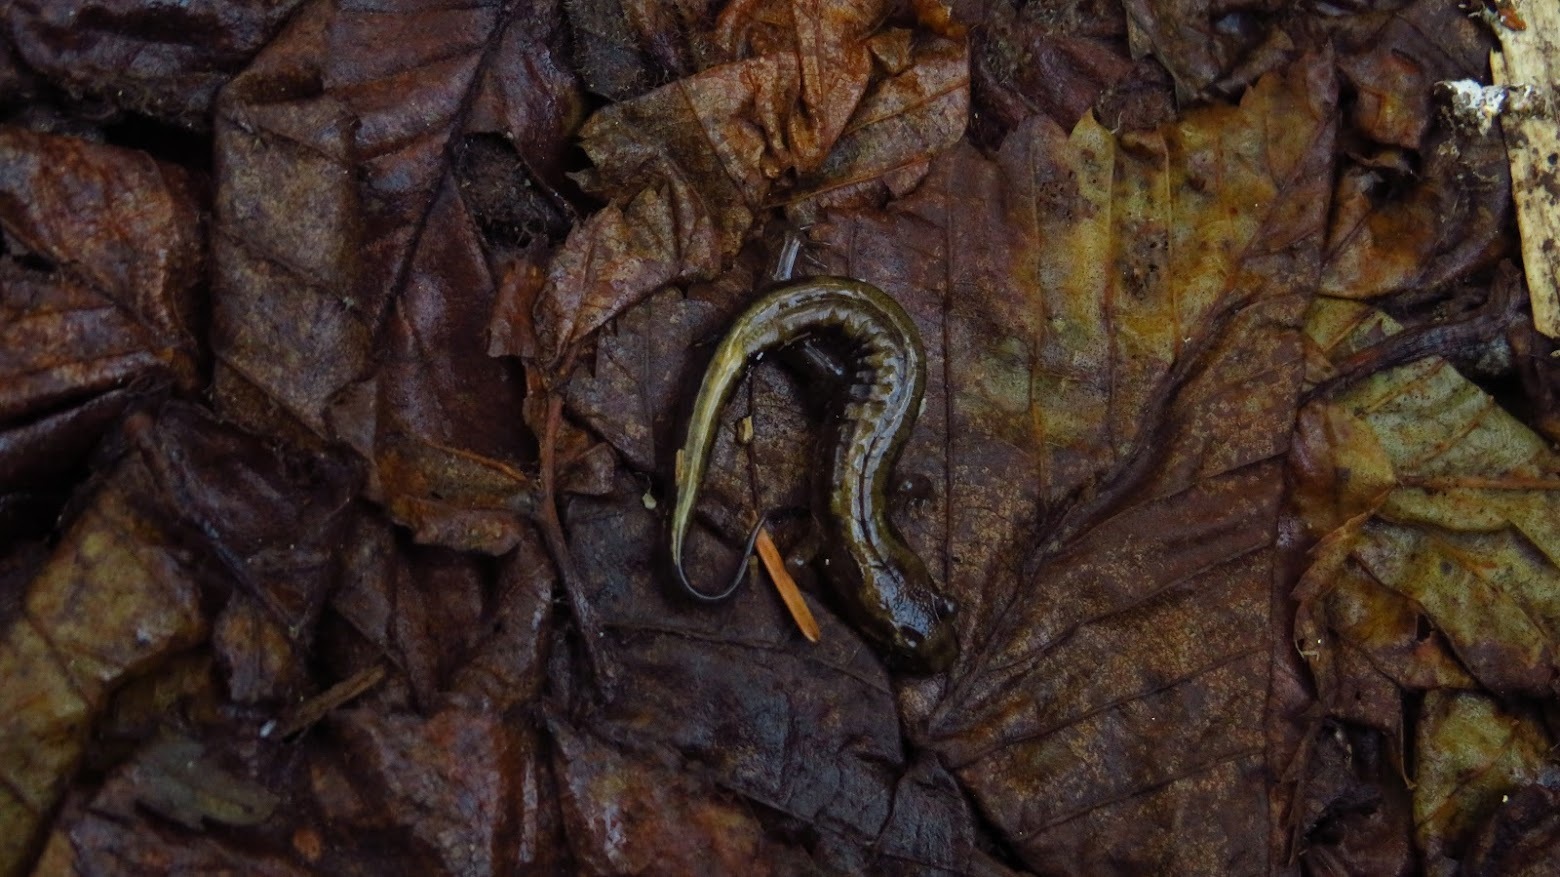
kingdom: Animalia
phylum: Chordata
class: Amphibia
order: Caudata
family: Plethodontidae
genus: Desmognathus
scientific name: Desmognathus adatsihi
